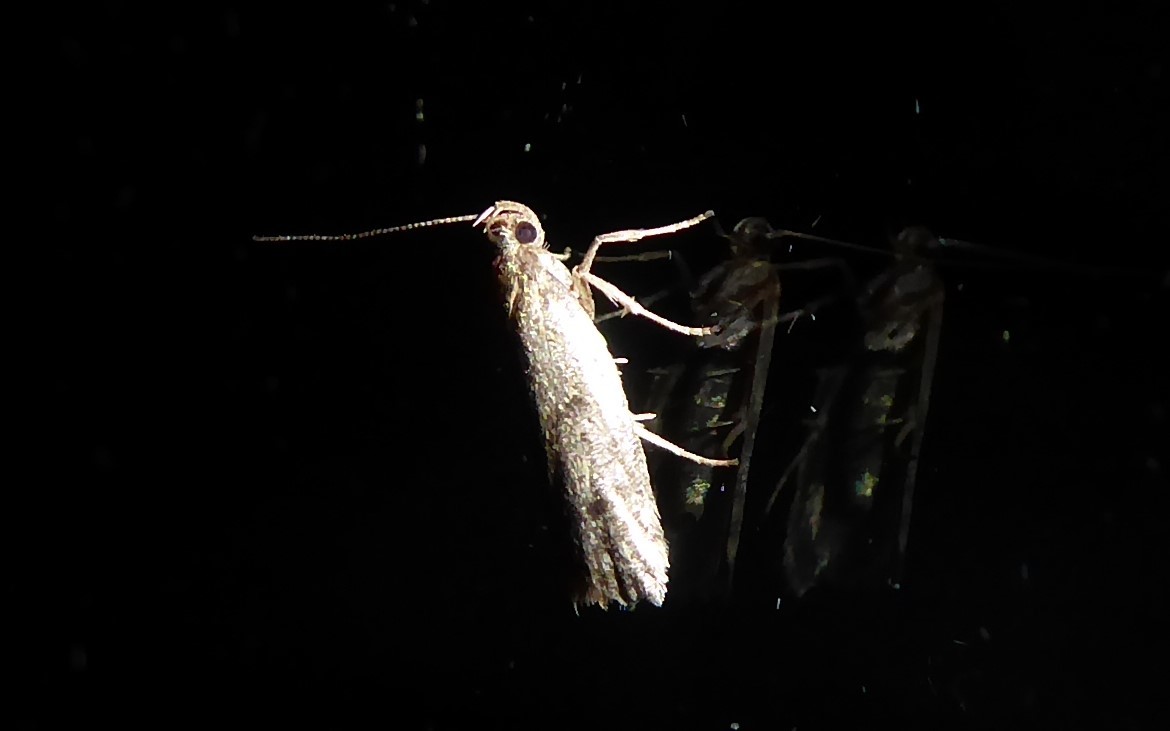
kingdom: Animalia
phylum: Arthropoda
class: Insecta
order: Lepidoptera
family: Oecophoridae
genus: Gymnobathra
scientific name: Gymnobathra tholodella
